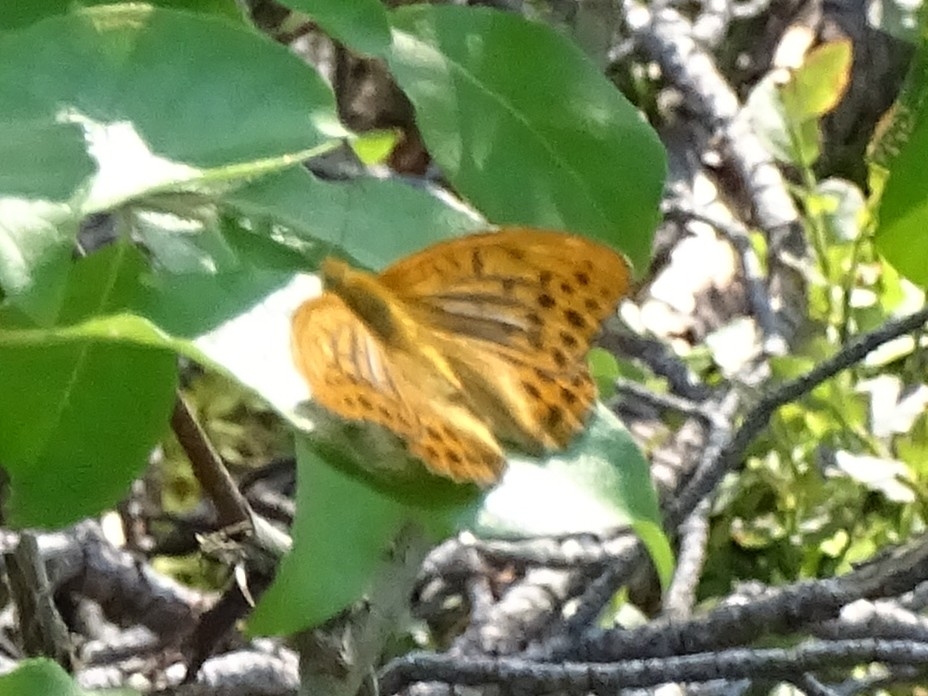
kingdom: Animalia
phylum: Arthropoda
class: Insecta
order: Lepidoptera
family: Nymphalidae
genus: Argynnis
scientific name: Argynnis paphia
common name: Silver-washed fritillary
